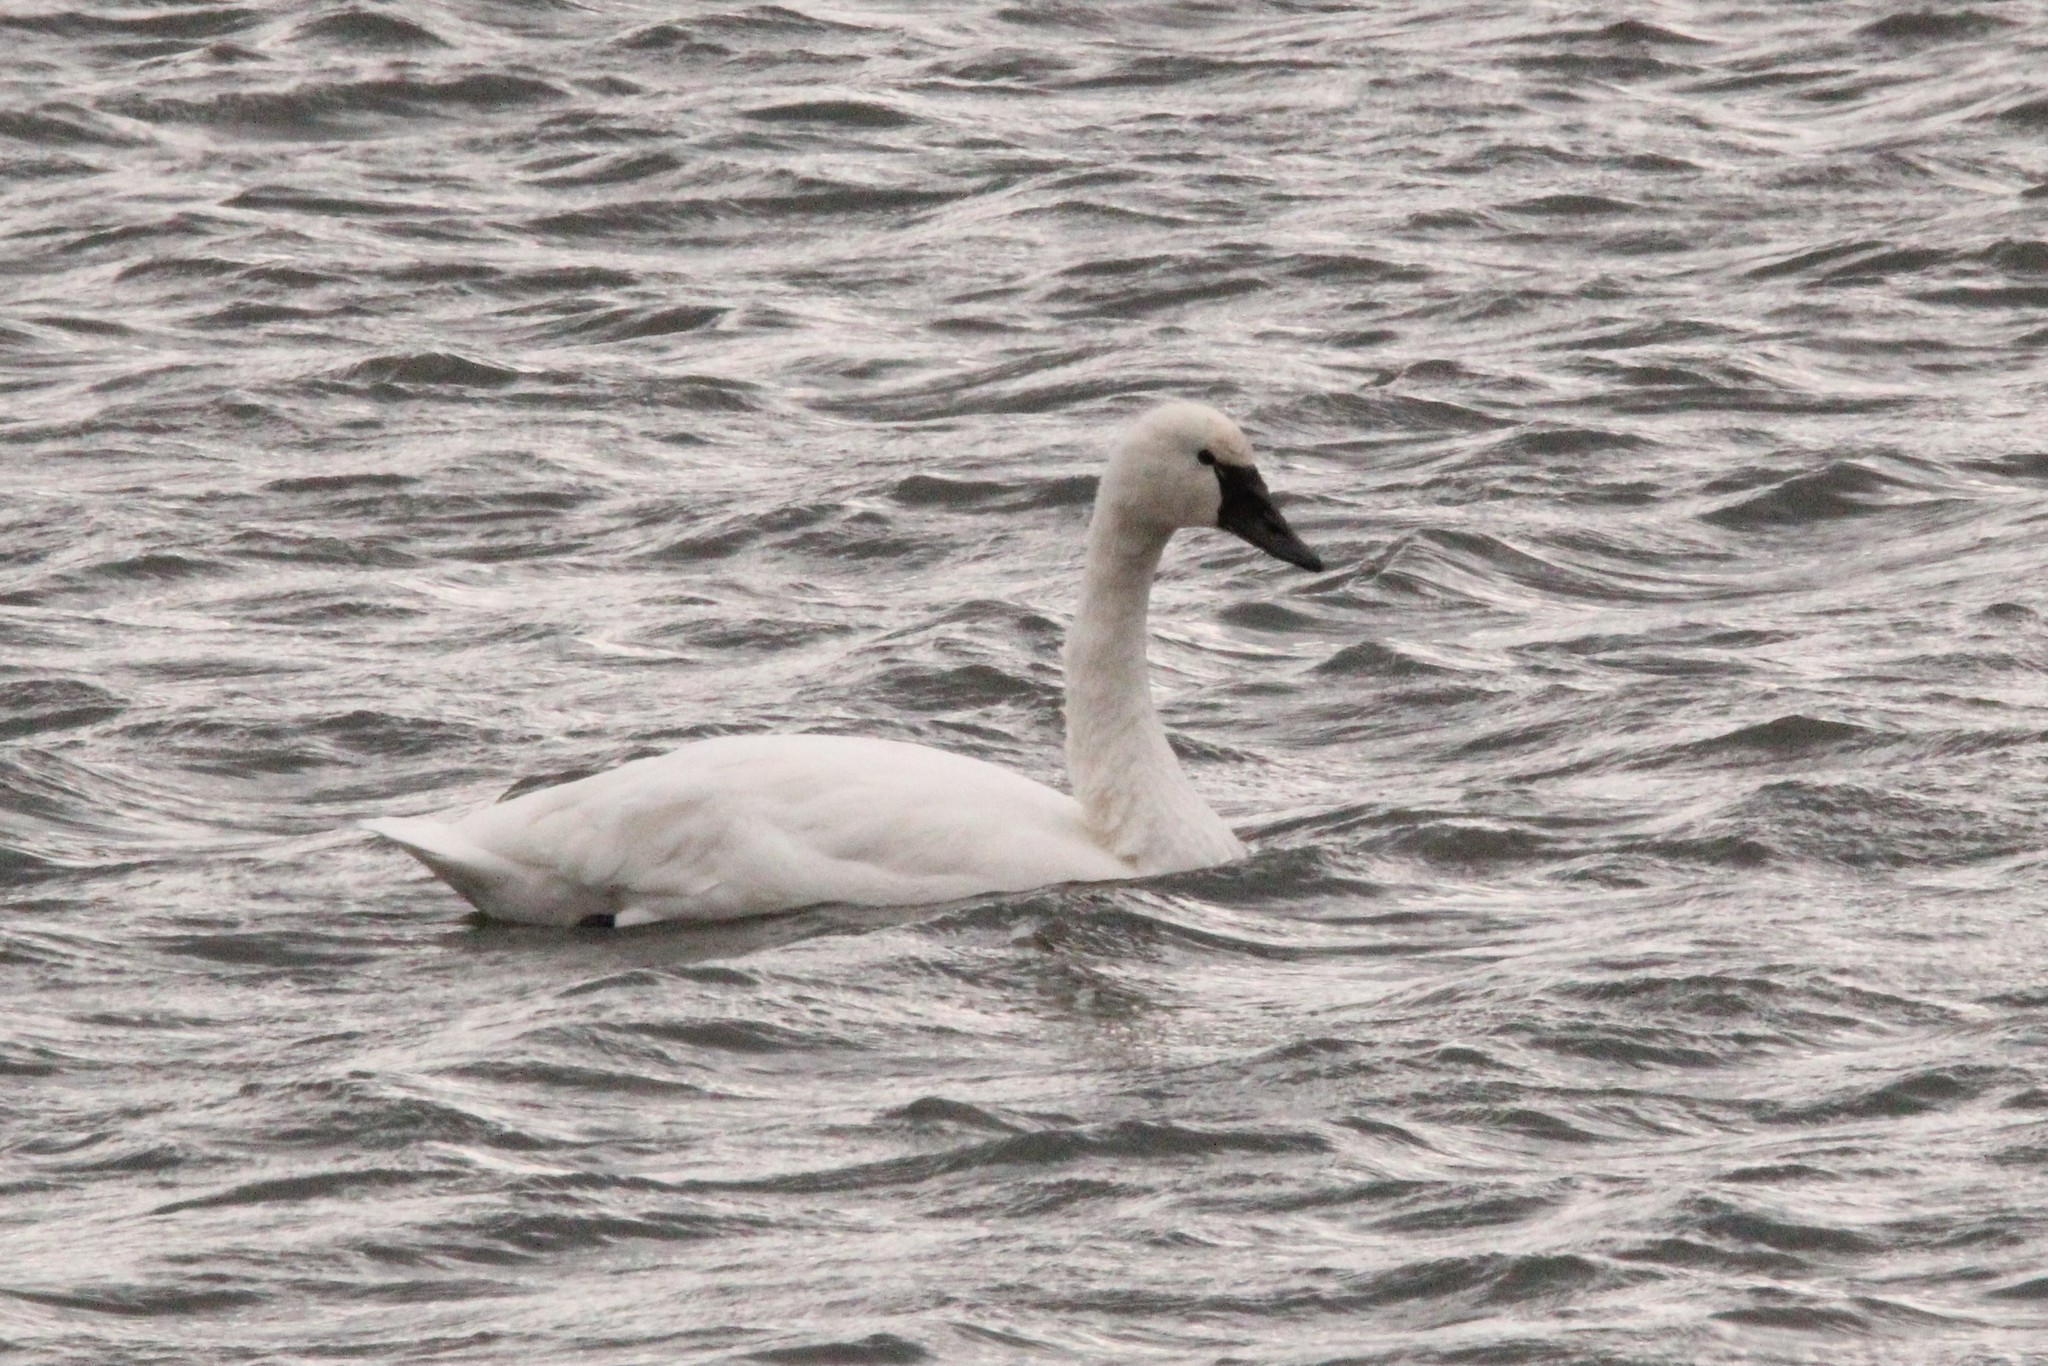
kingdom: Animalia
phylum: Chordata
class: Aves
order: Anseriformes
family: Anatidae
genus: Cygnus
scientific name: Cygnus columbianus
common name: Tundra swan
